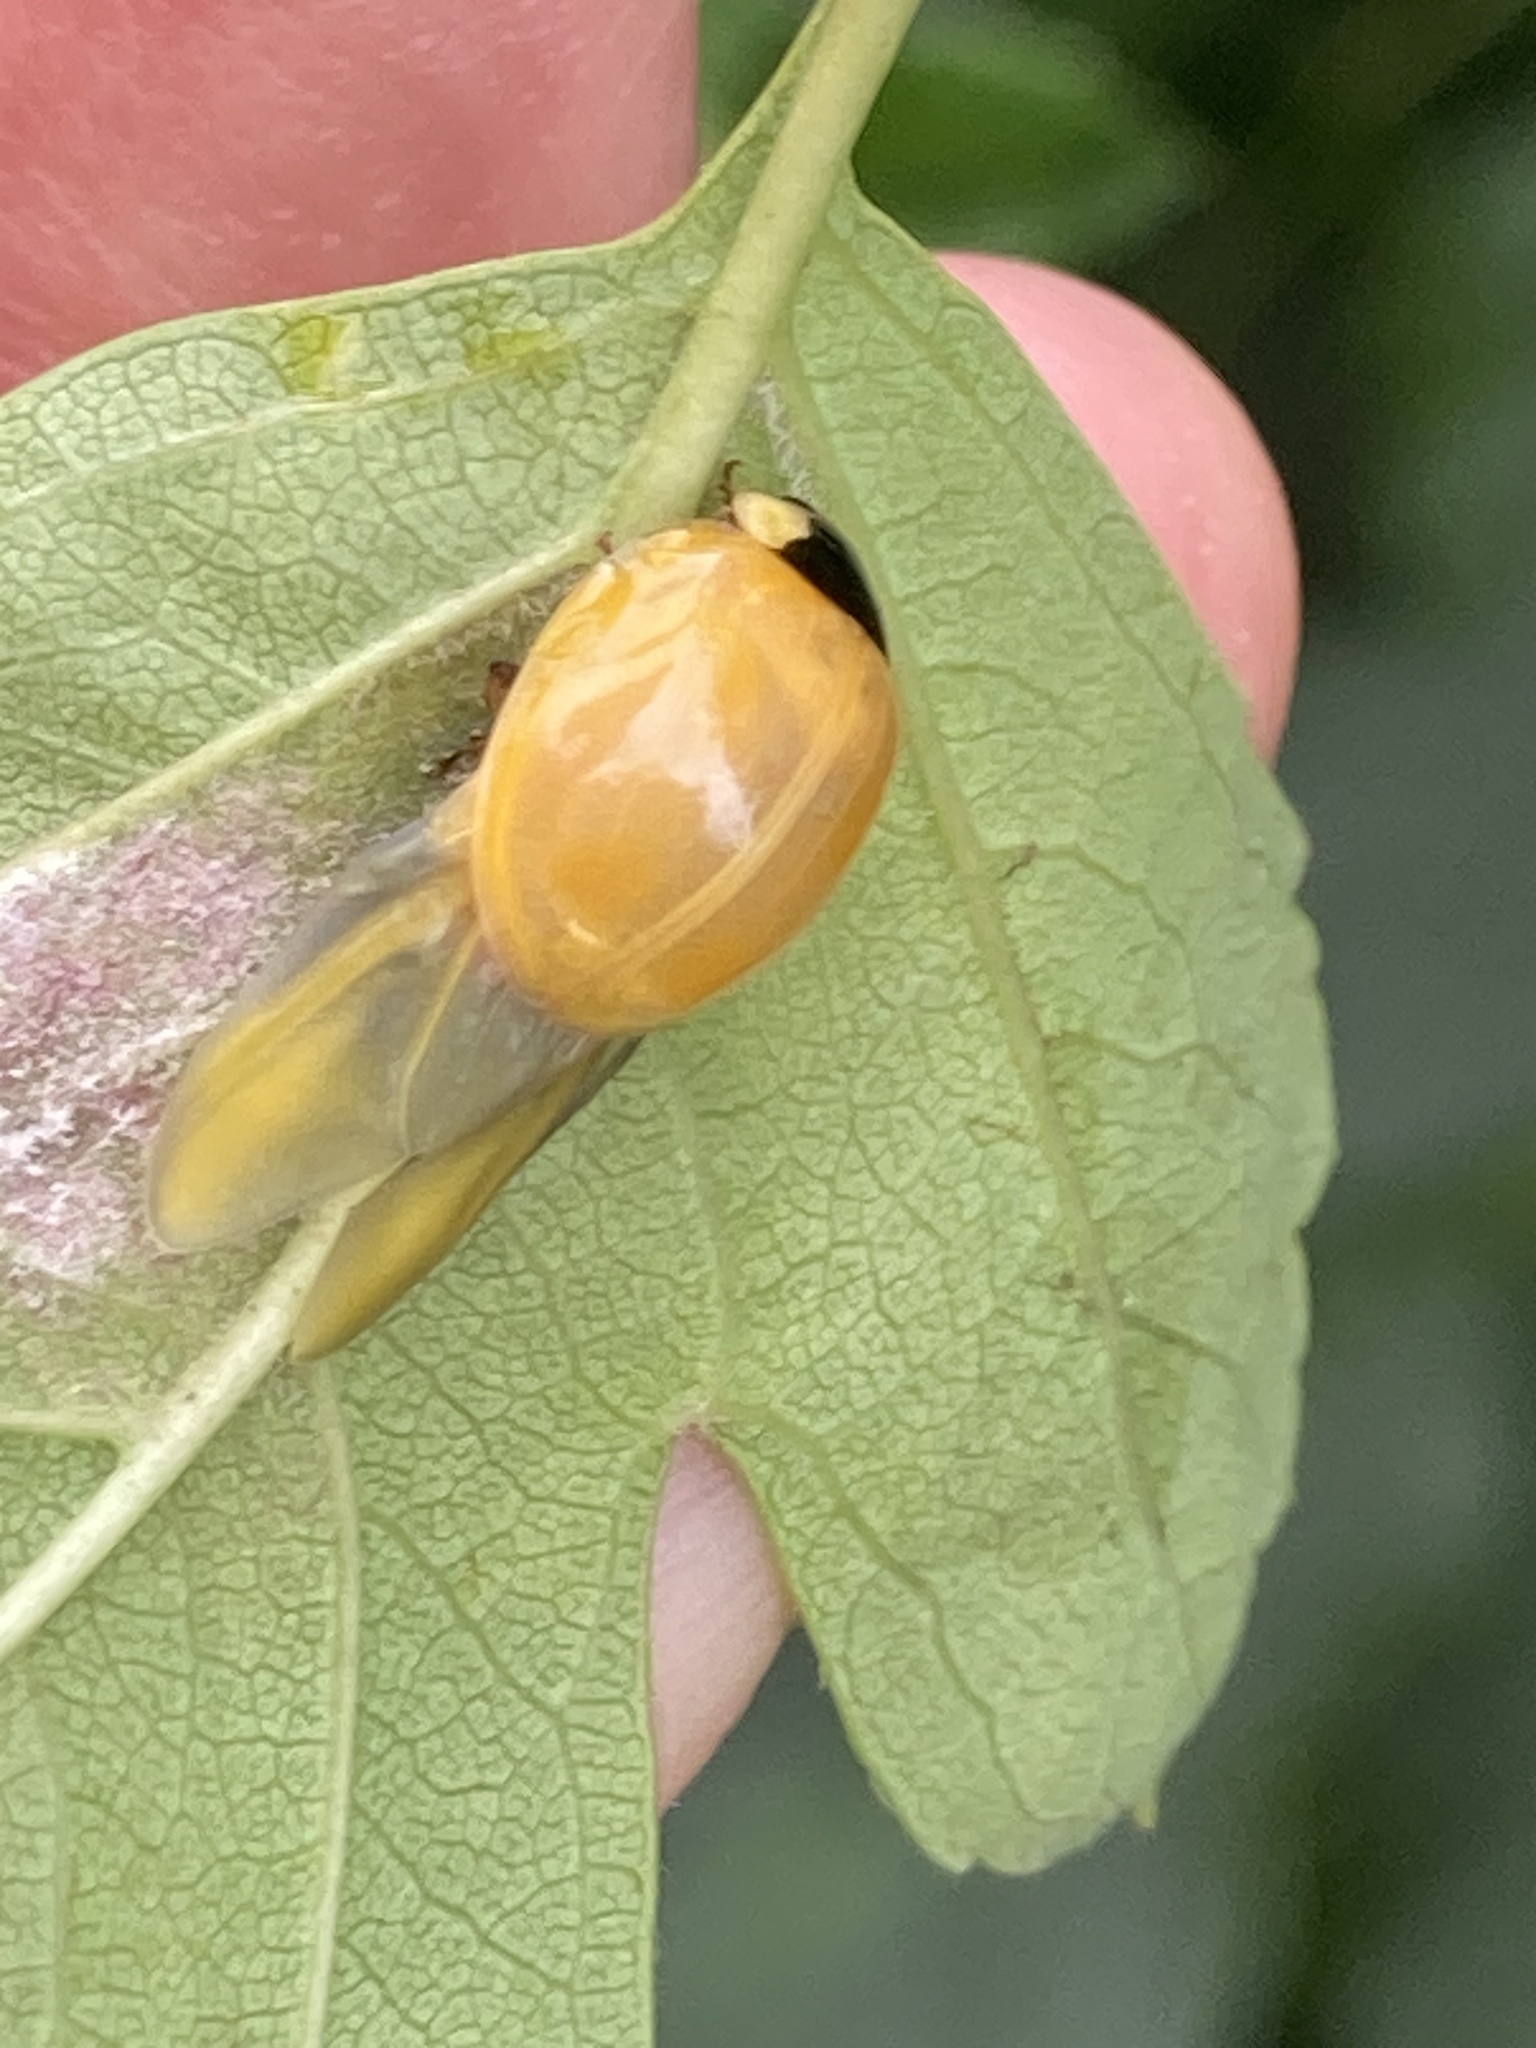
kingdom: Animalia
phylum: Arthropoda
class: Insecta
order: Coleoptera
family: Coccinellidae
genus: Harmonia
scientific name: Harmonia axyridis
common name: Harlequin ladybird
